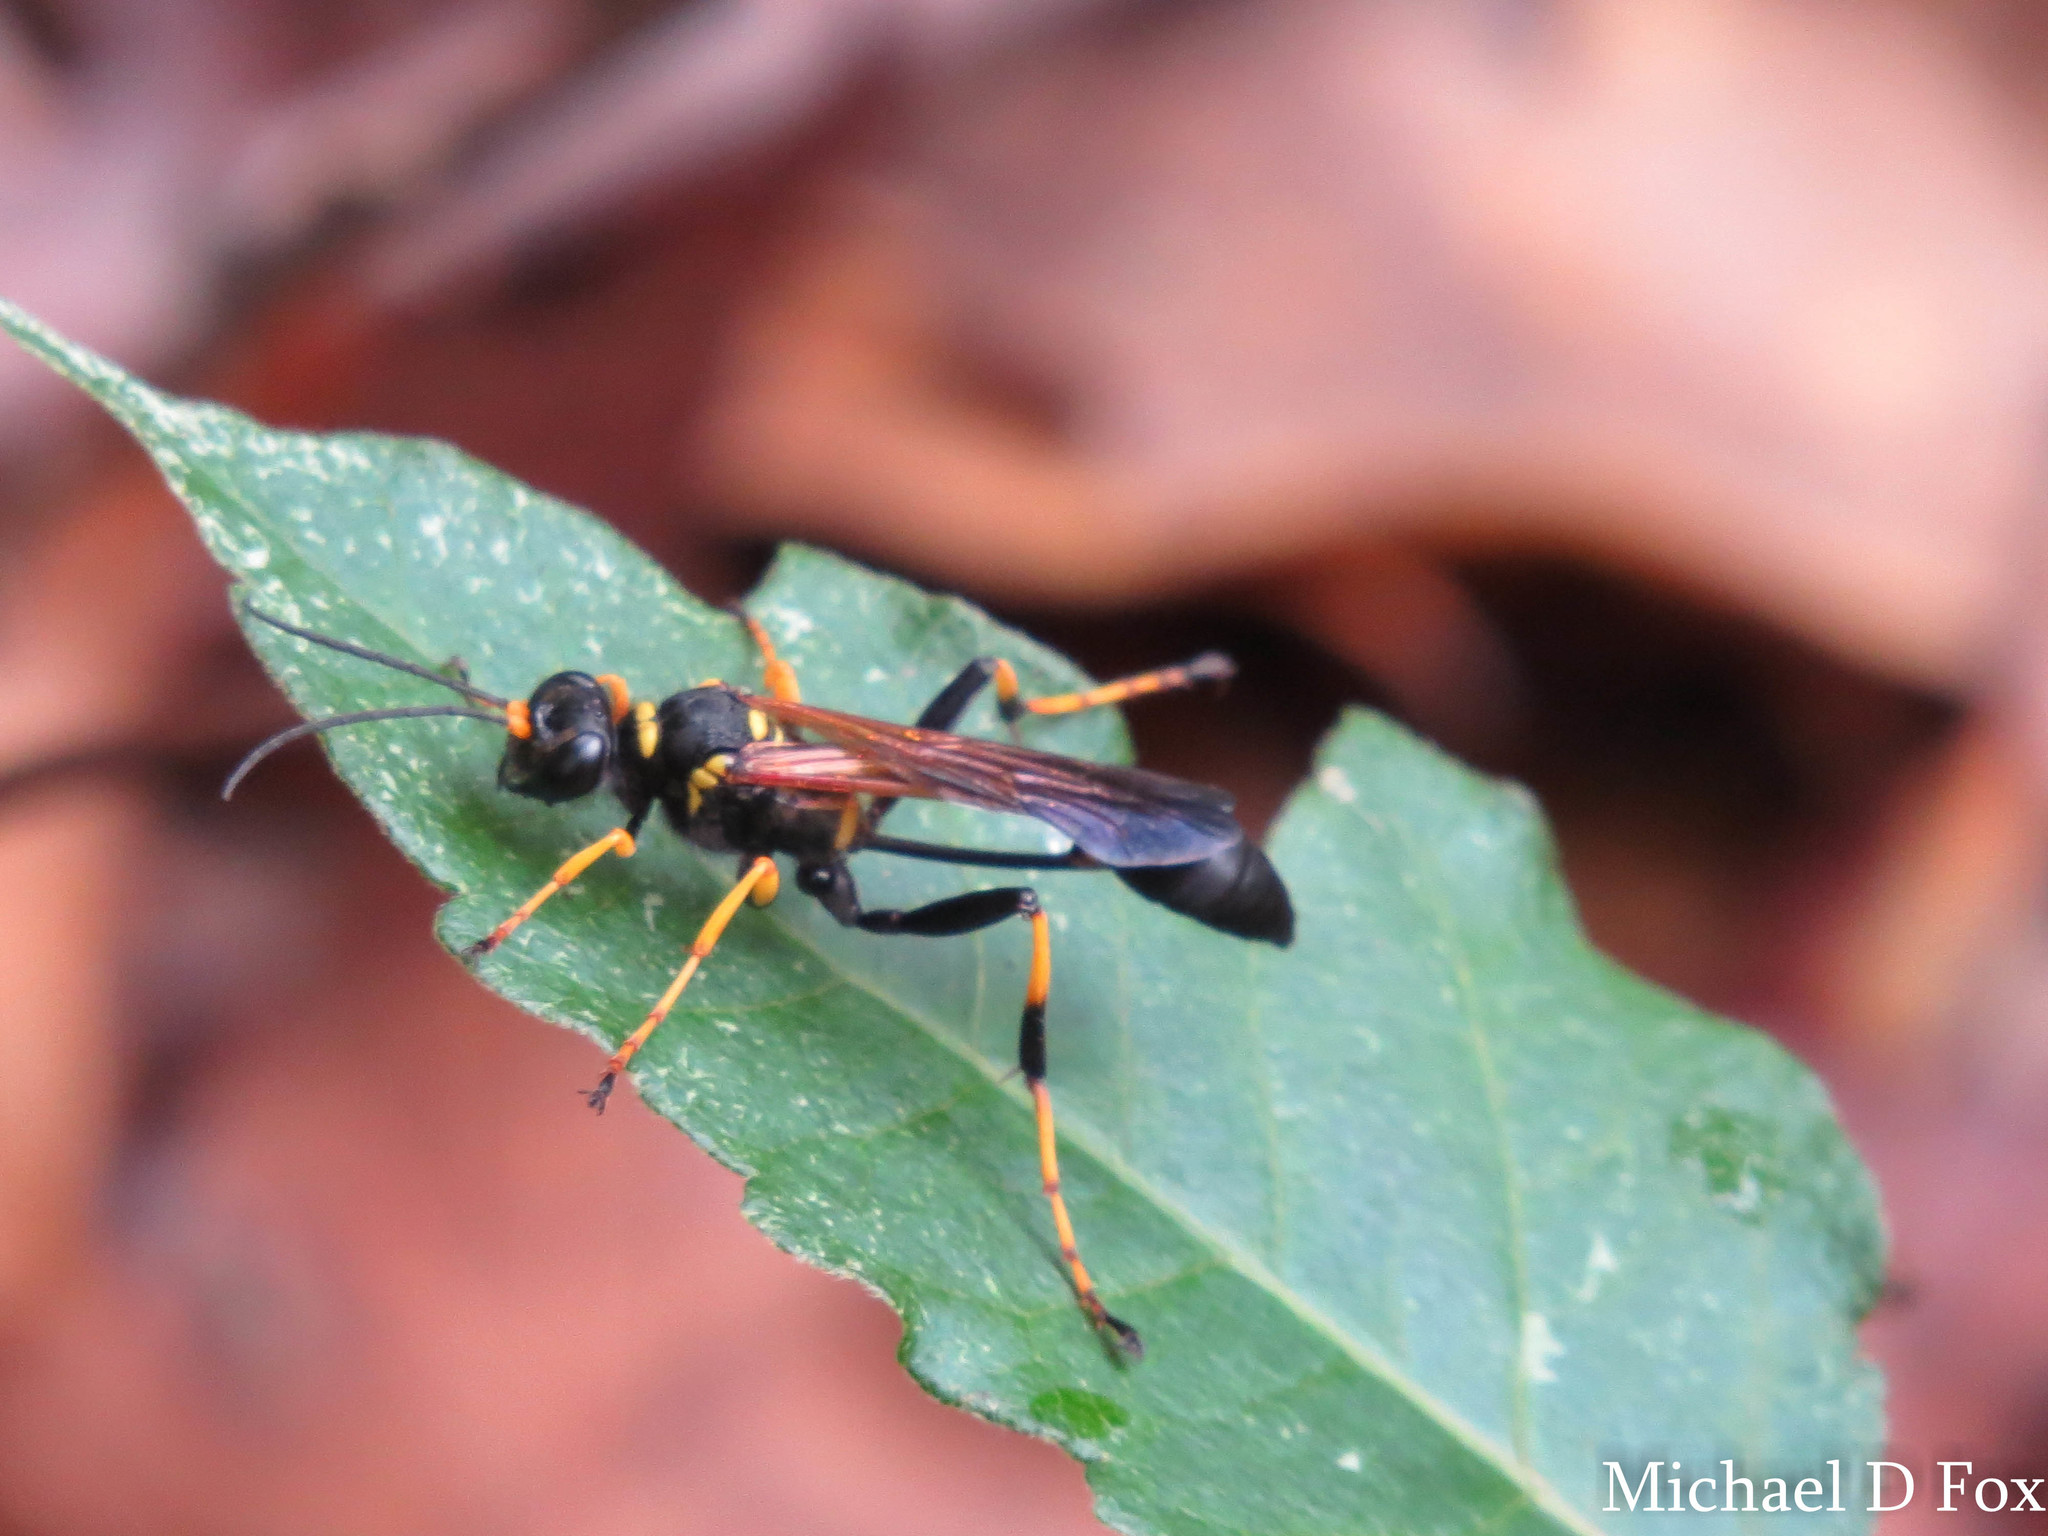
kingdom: Animalia
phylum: Arthropoda
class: Insecta
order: Hymenoptera
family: Sphecidae
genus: Sceliphron
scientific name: Sceliphron caementarium
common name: Mud dauber
